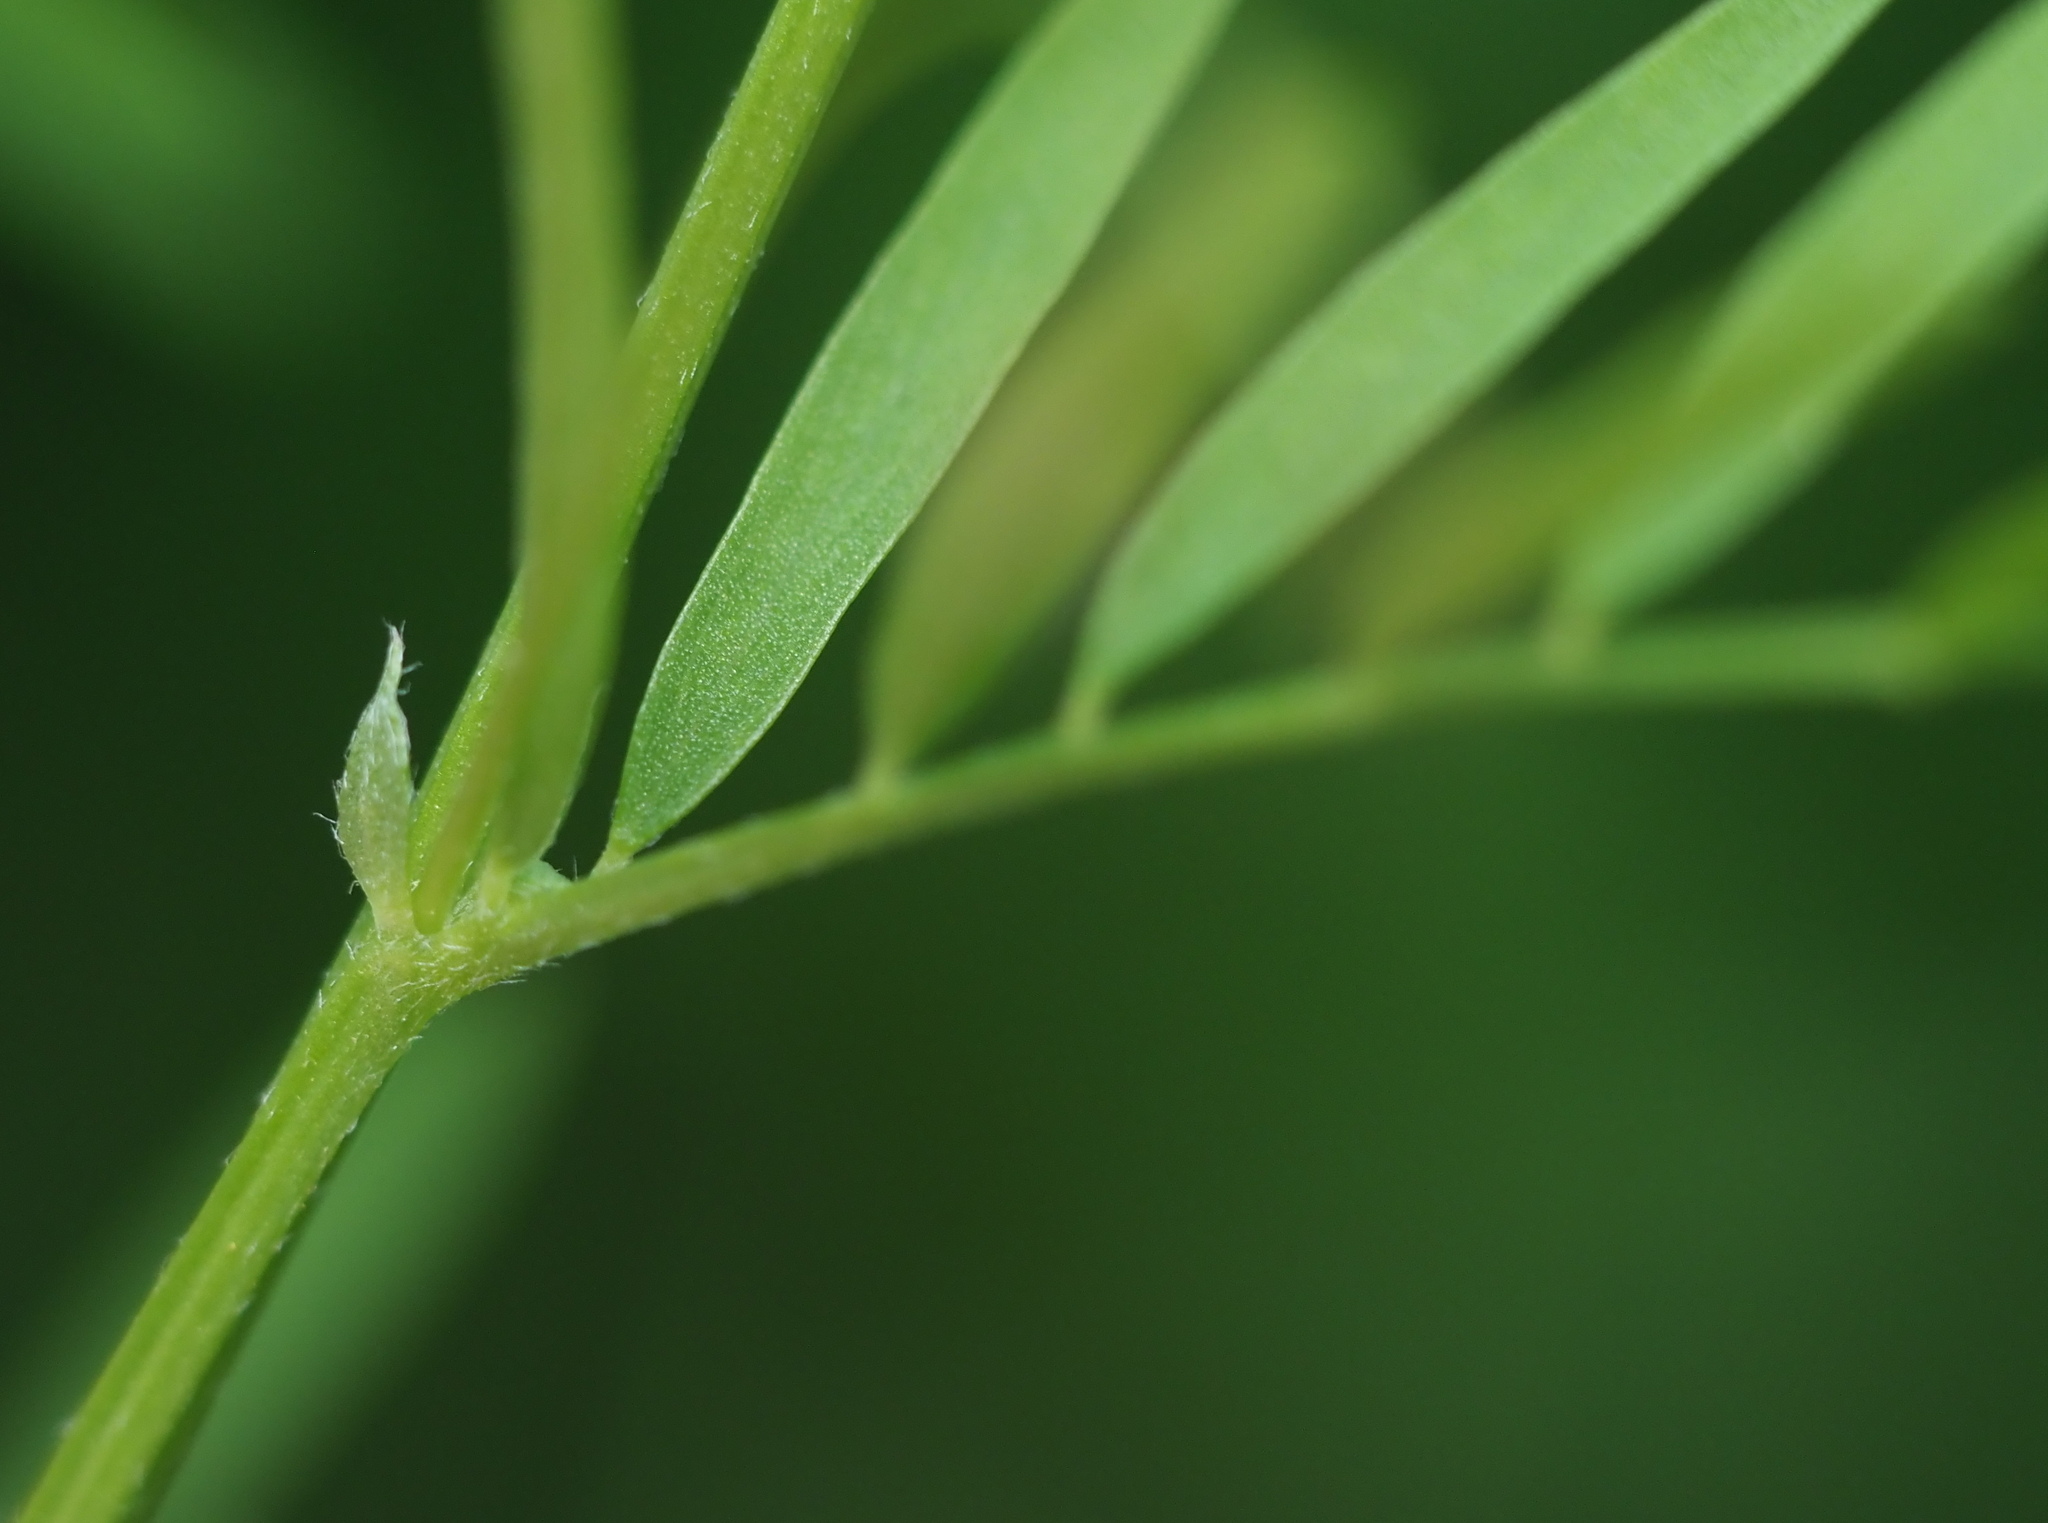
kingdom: Plantae
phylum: Tracheophyta
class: Magnoliopsida
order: Fabales
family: Fabaceae
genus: Vicia
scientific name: Vicia tetrasperma
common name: Smooth tare
